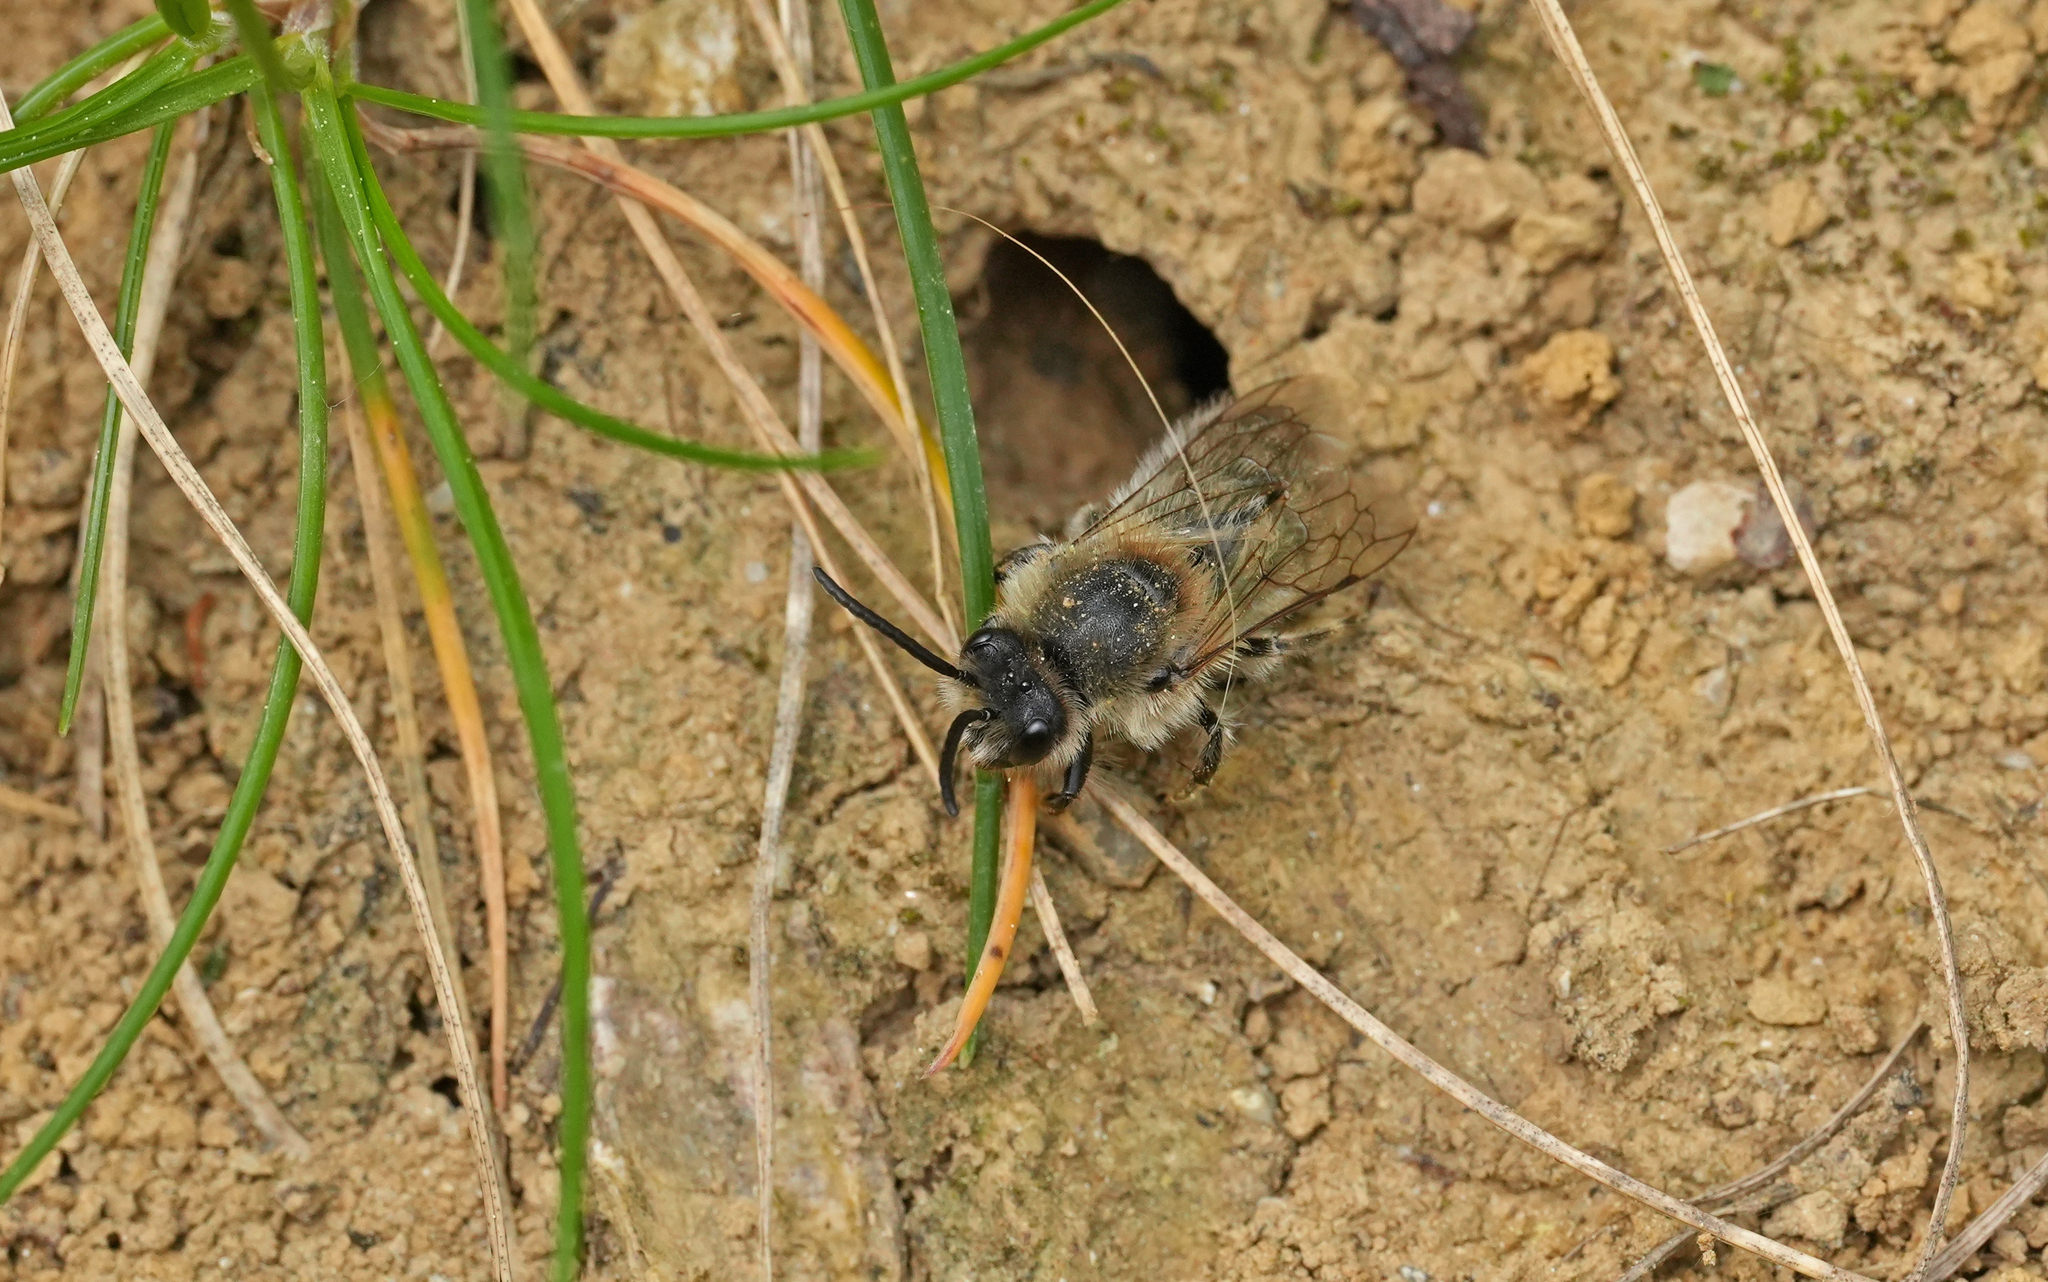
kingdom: Animalia
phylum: Arthropoda
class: Insecta
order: Hymenoptera
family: Colletidae
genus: Colletes
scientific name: Colletes cunicularius
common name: Early colletes
